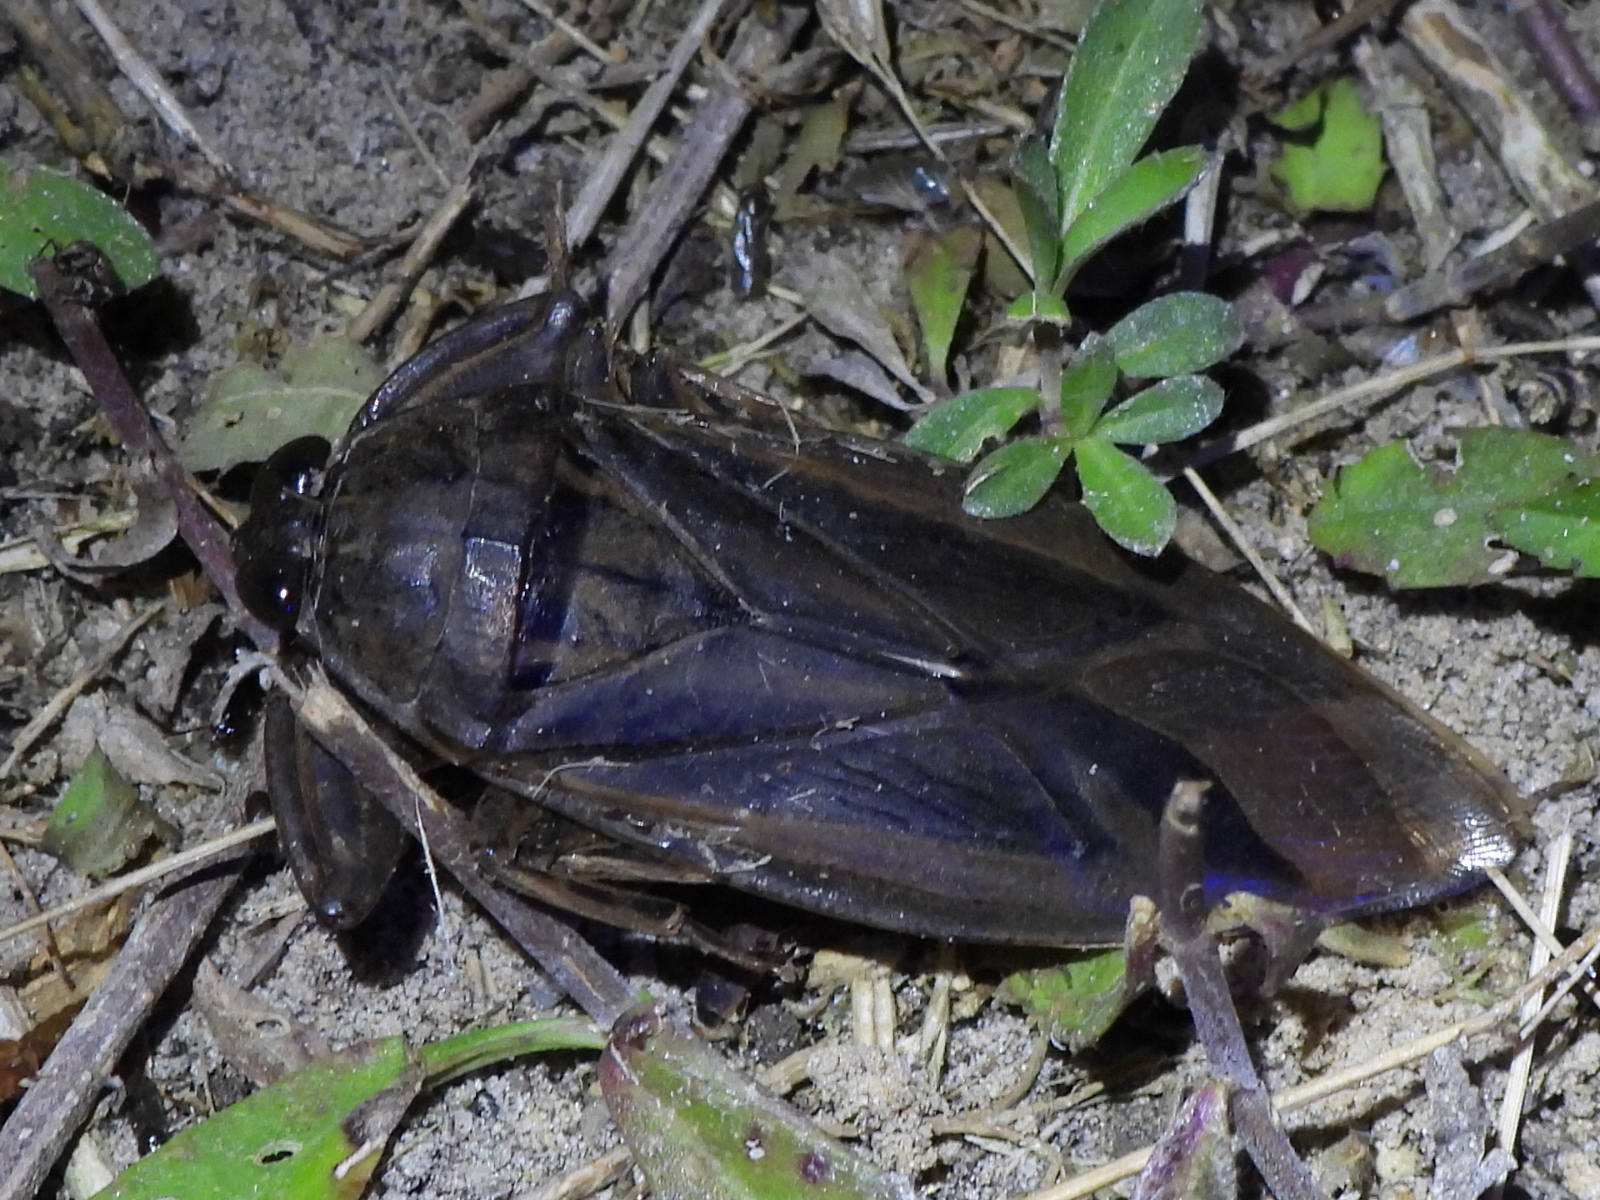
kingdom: Animalia
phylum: Arthropoda
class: Insecta
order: Hemiptera
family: Belostomatidae
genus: Lethocerus
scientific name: Lethocerus uhleri
